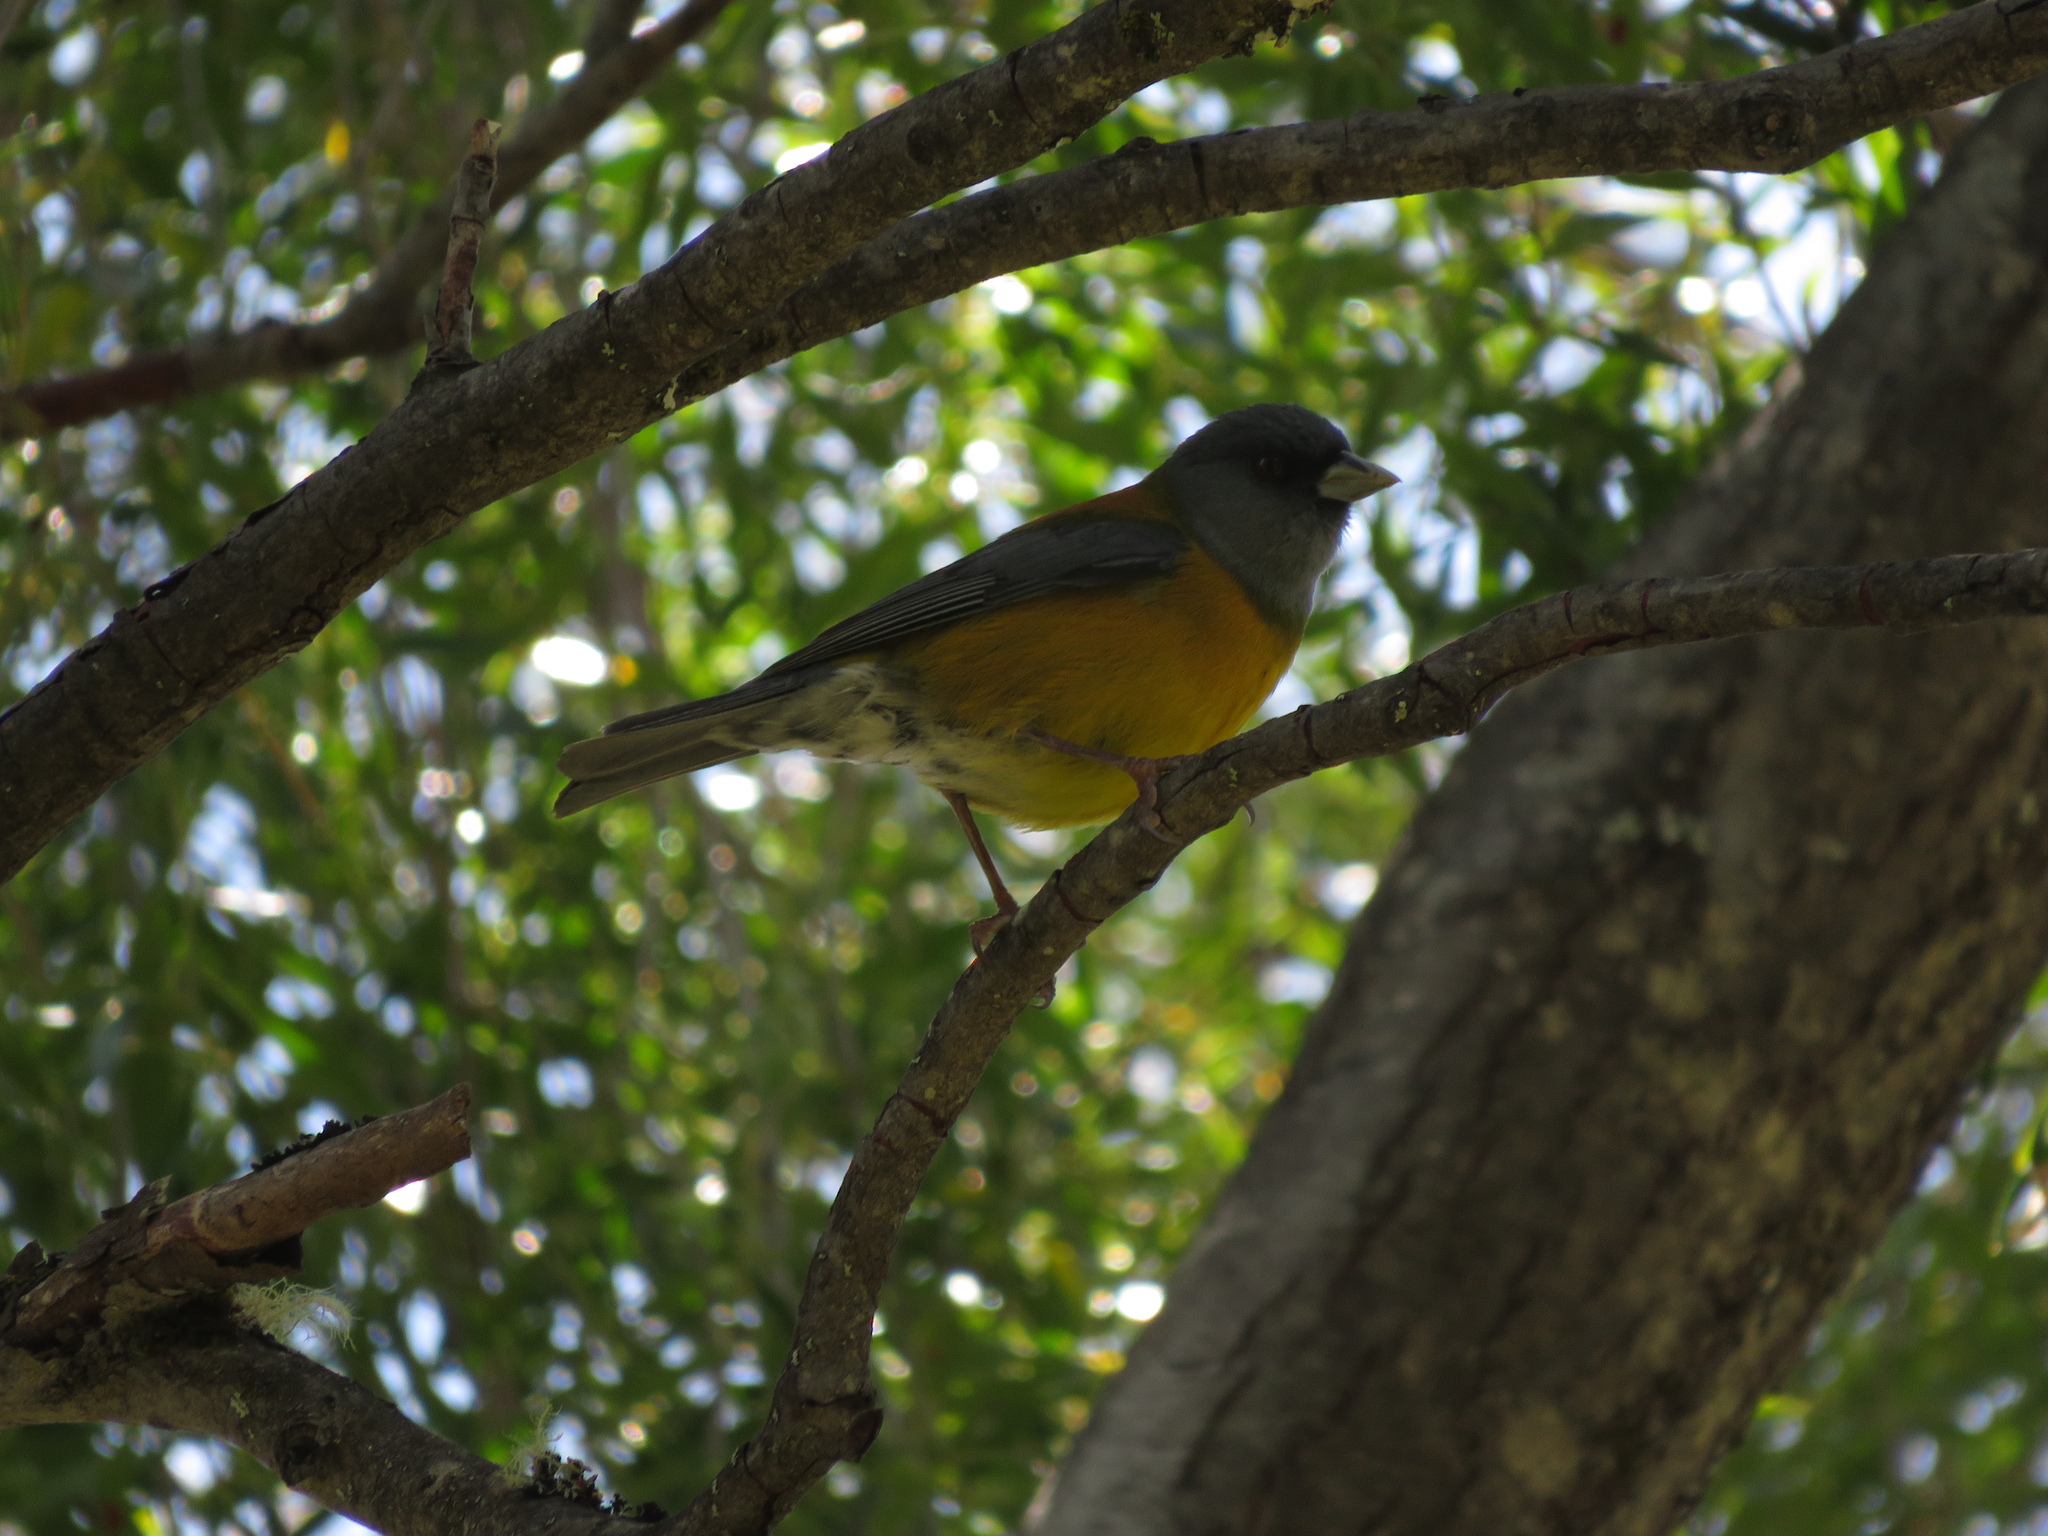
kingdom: Animalia
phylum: Chordata
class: Aves
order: Passeriformes
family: Thraupidae
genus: Phrygilus
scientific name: Phrygilus patagonicus
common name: Patagonian sierra finch
